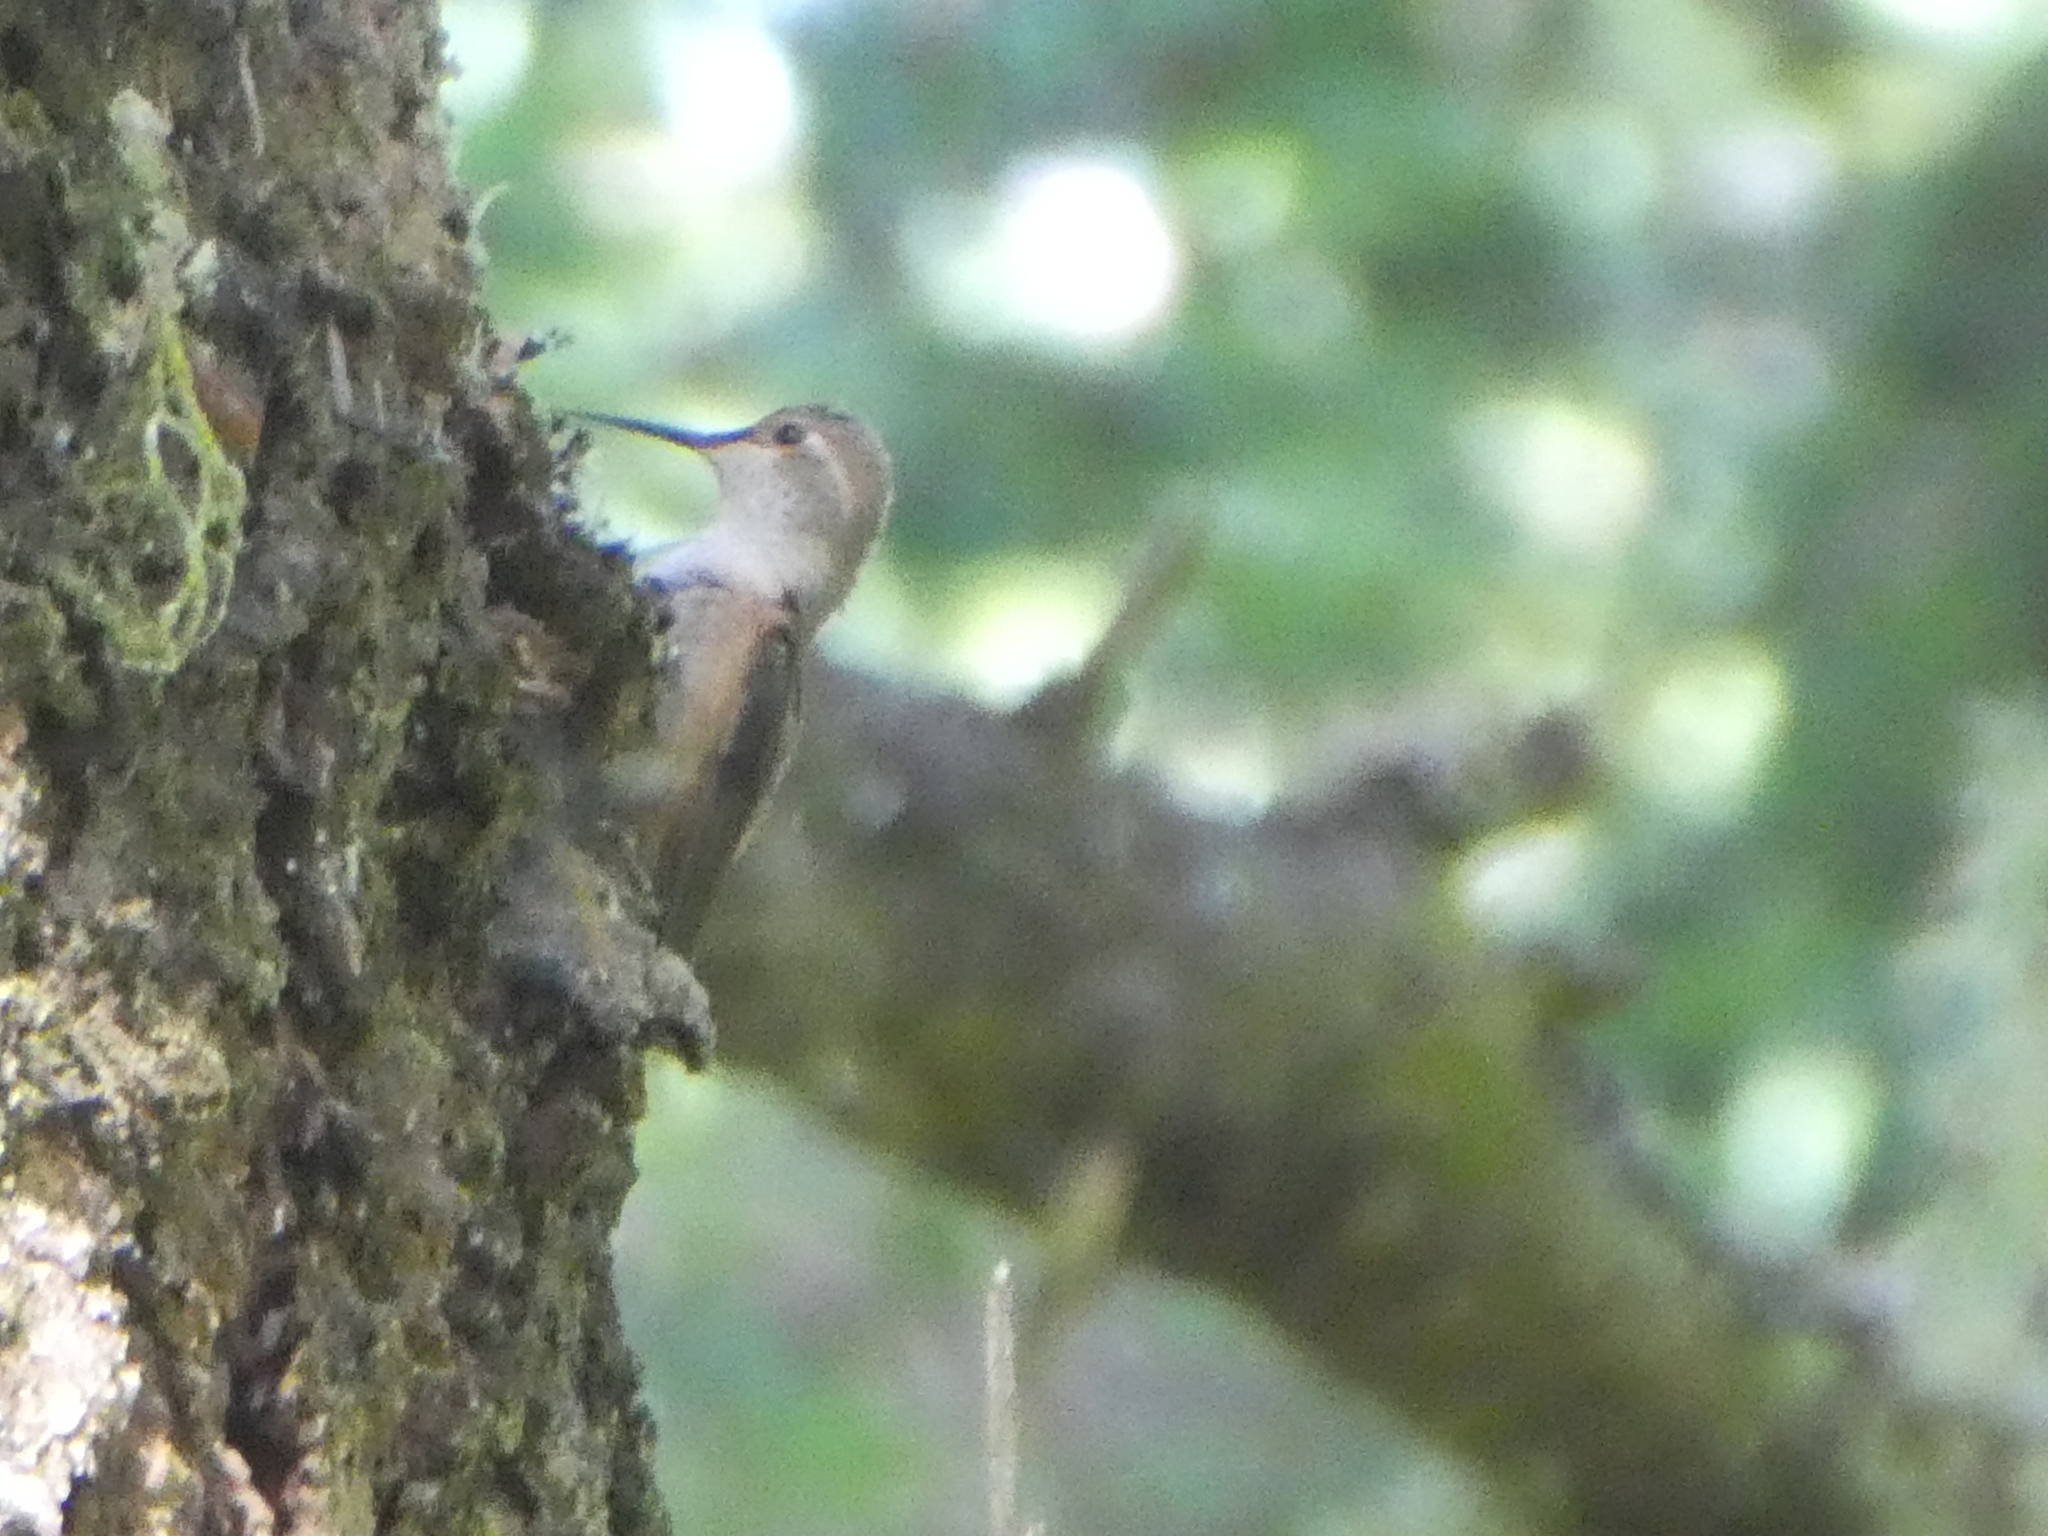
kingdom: Animalia
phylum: Chordata
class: Aves
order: Apodiformes
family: Trochilidae
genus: Selasphorus
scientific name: Selasphorus sasin
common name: Allen's hummingbird
